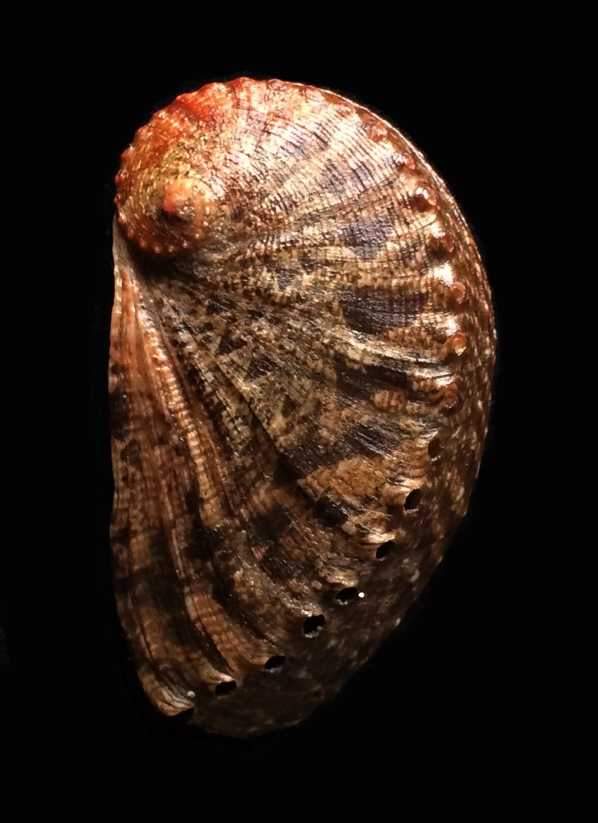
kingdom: Animalia
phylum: Mollusca
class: Gastropoda
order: Lepetellida
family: Haliotidae
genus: Haliotis
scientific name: Haliotis tuberculata
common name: Green ormer
